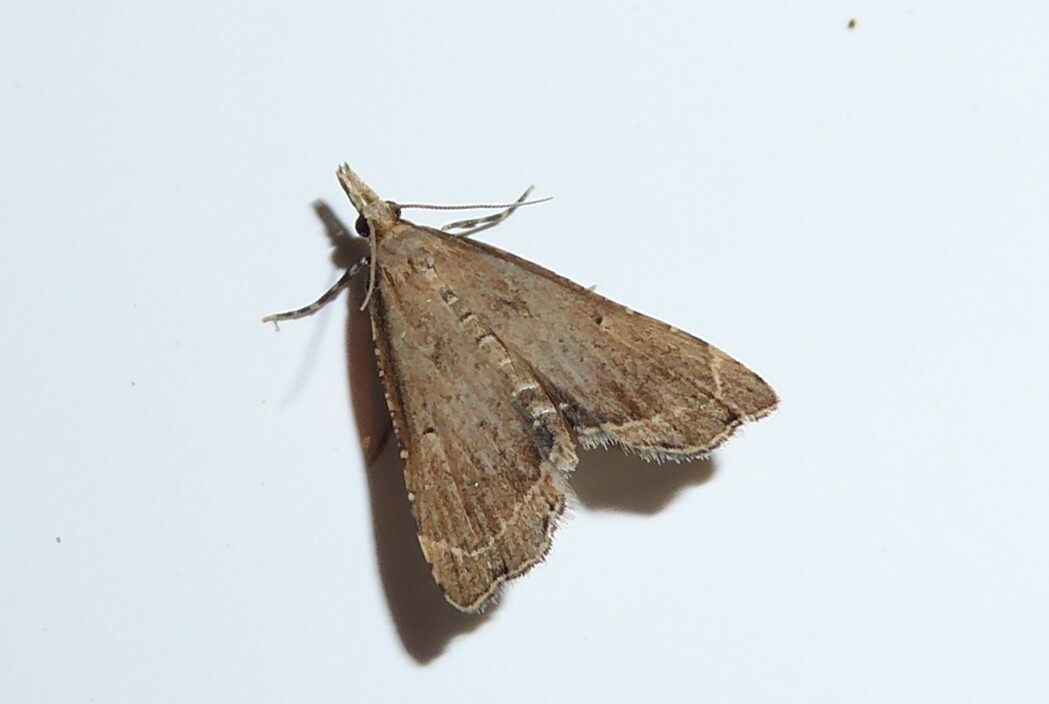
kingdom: Animalia
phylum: Arthropoda
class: Insecta
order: Lepidoptera
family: Crambidae
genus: Diplopseustis
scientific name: Diplopseustis perieresalis
